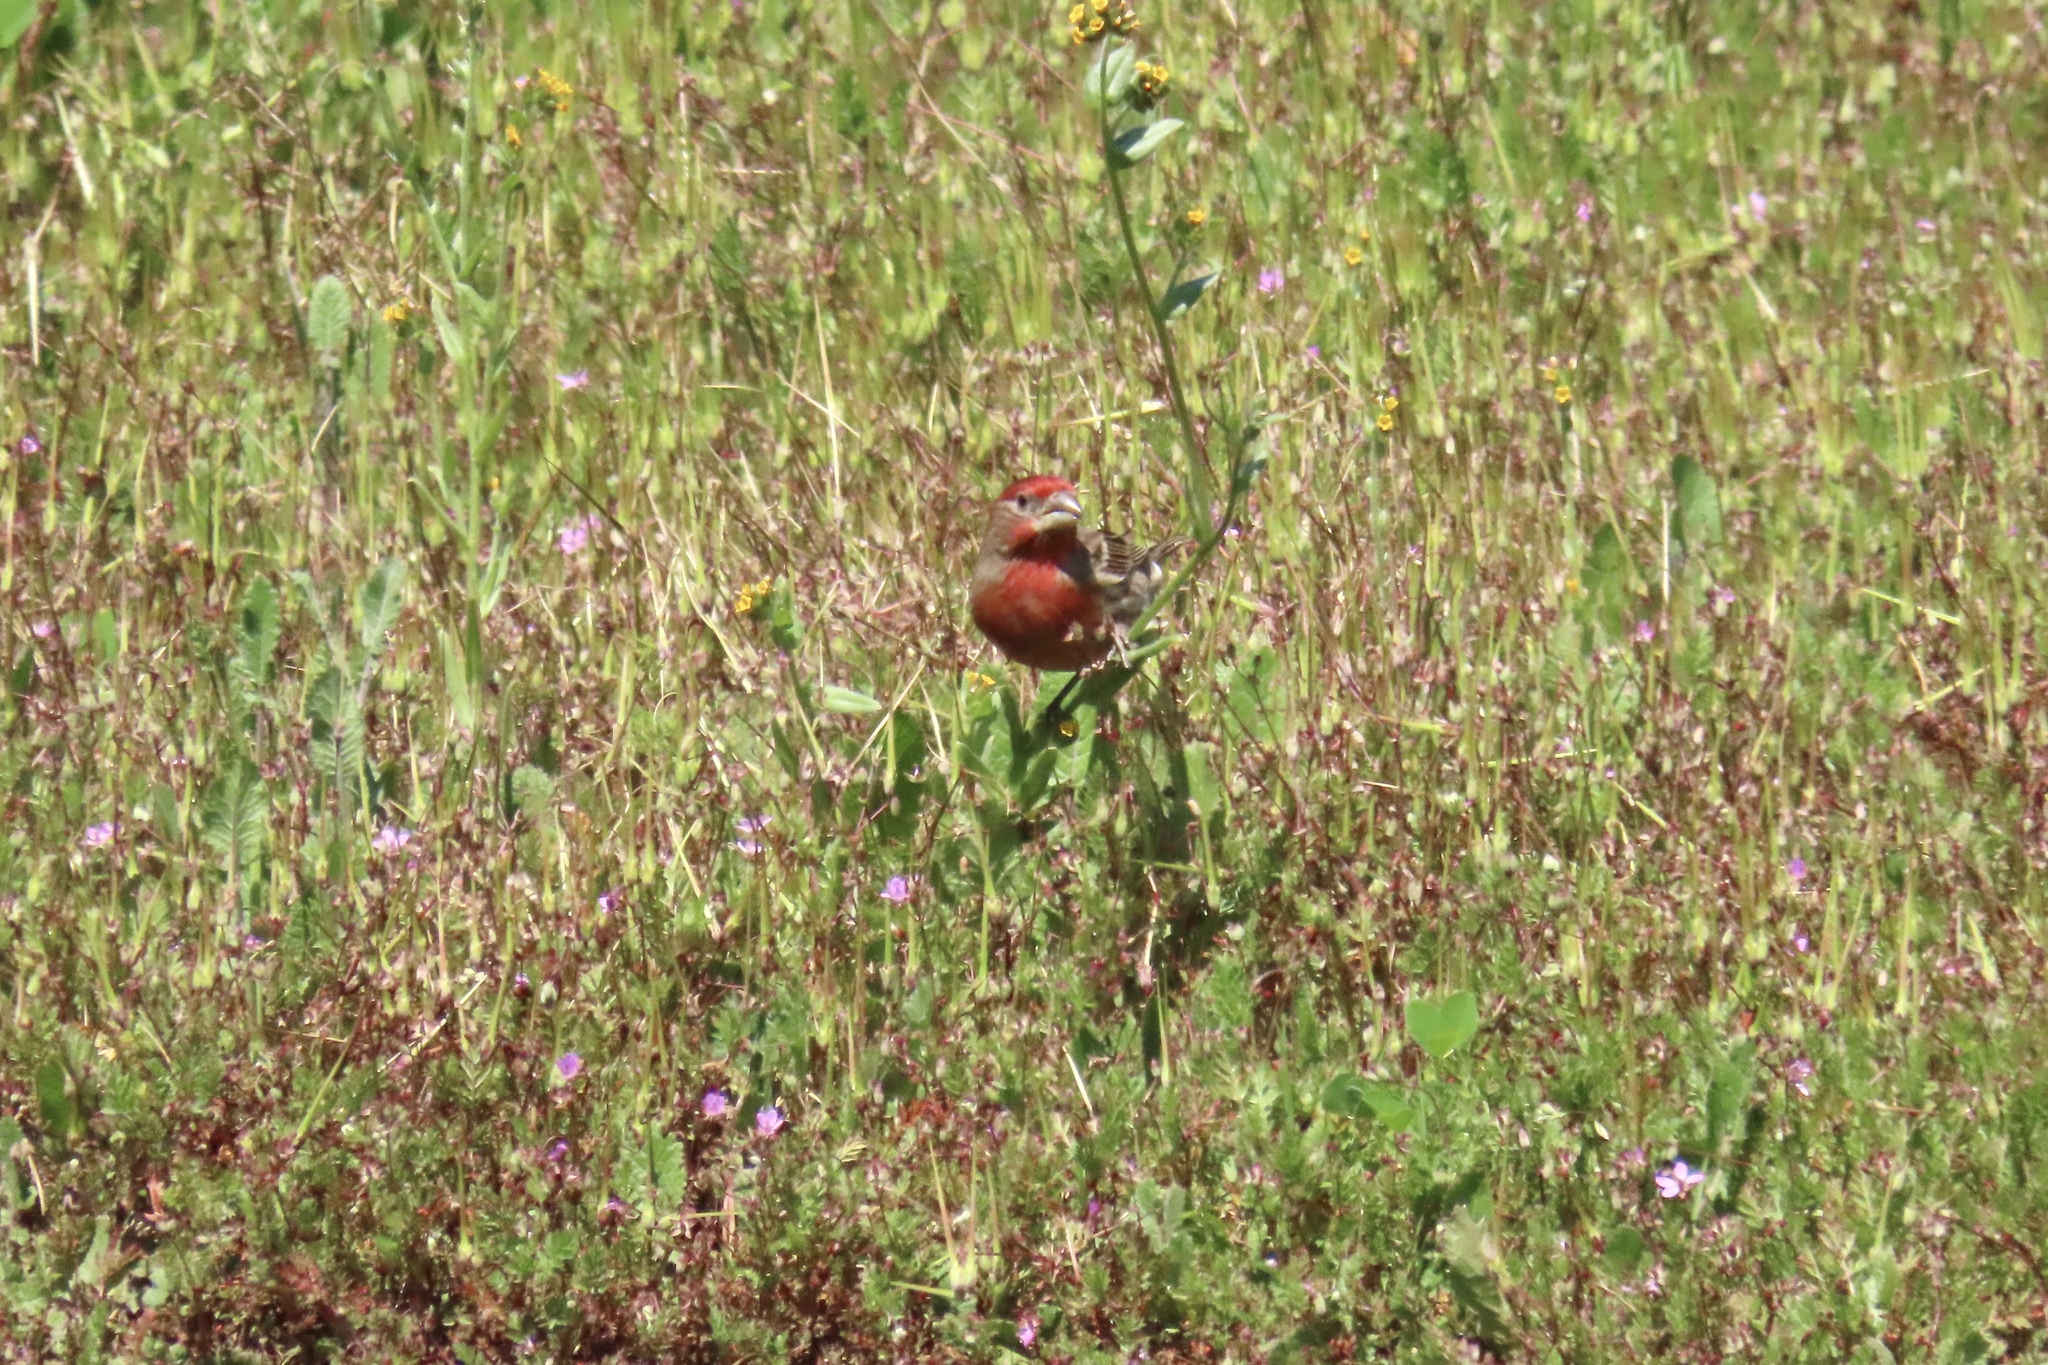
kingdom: Animalia
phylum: Chordata
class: Aves
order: Passeriformes
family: Fringillidae
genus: Haemorhous
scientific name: Haemorhous mexicanus
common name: House finch
